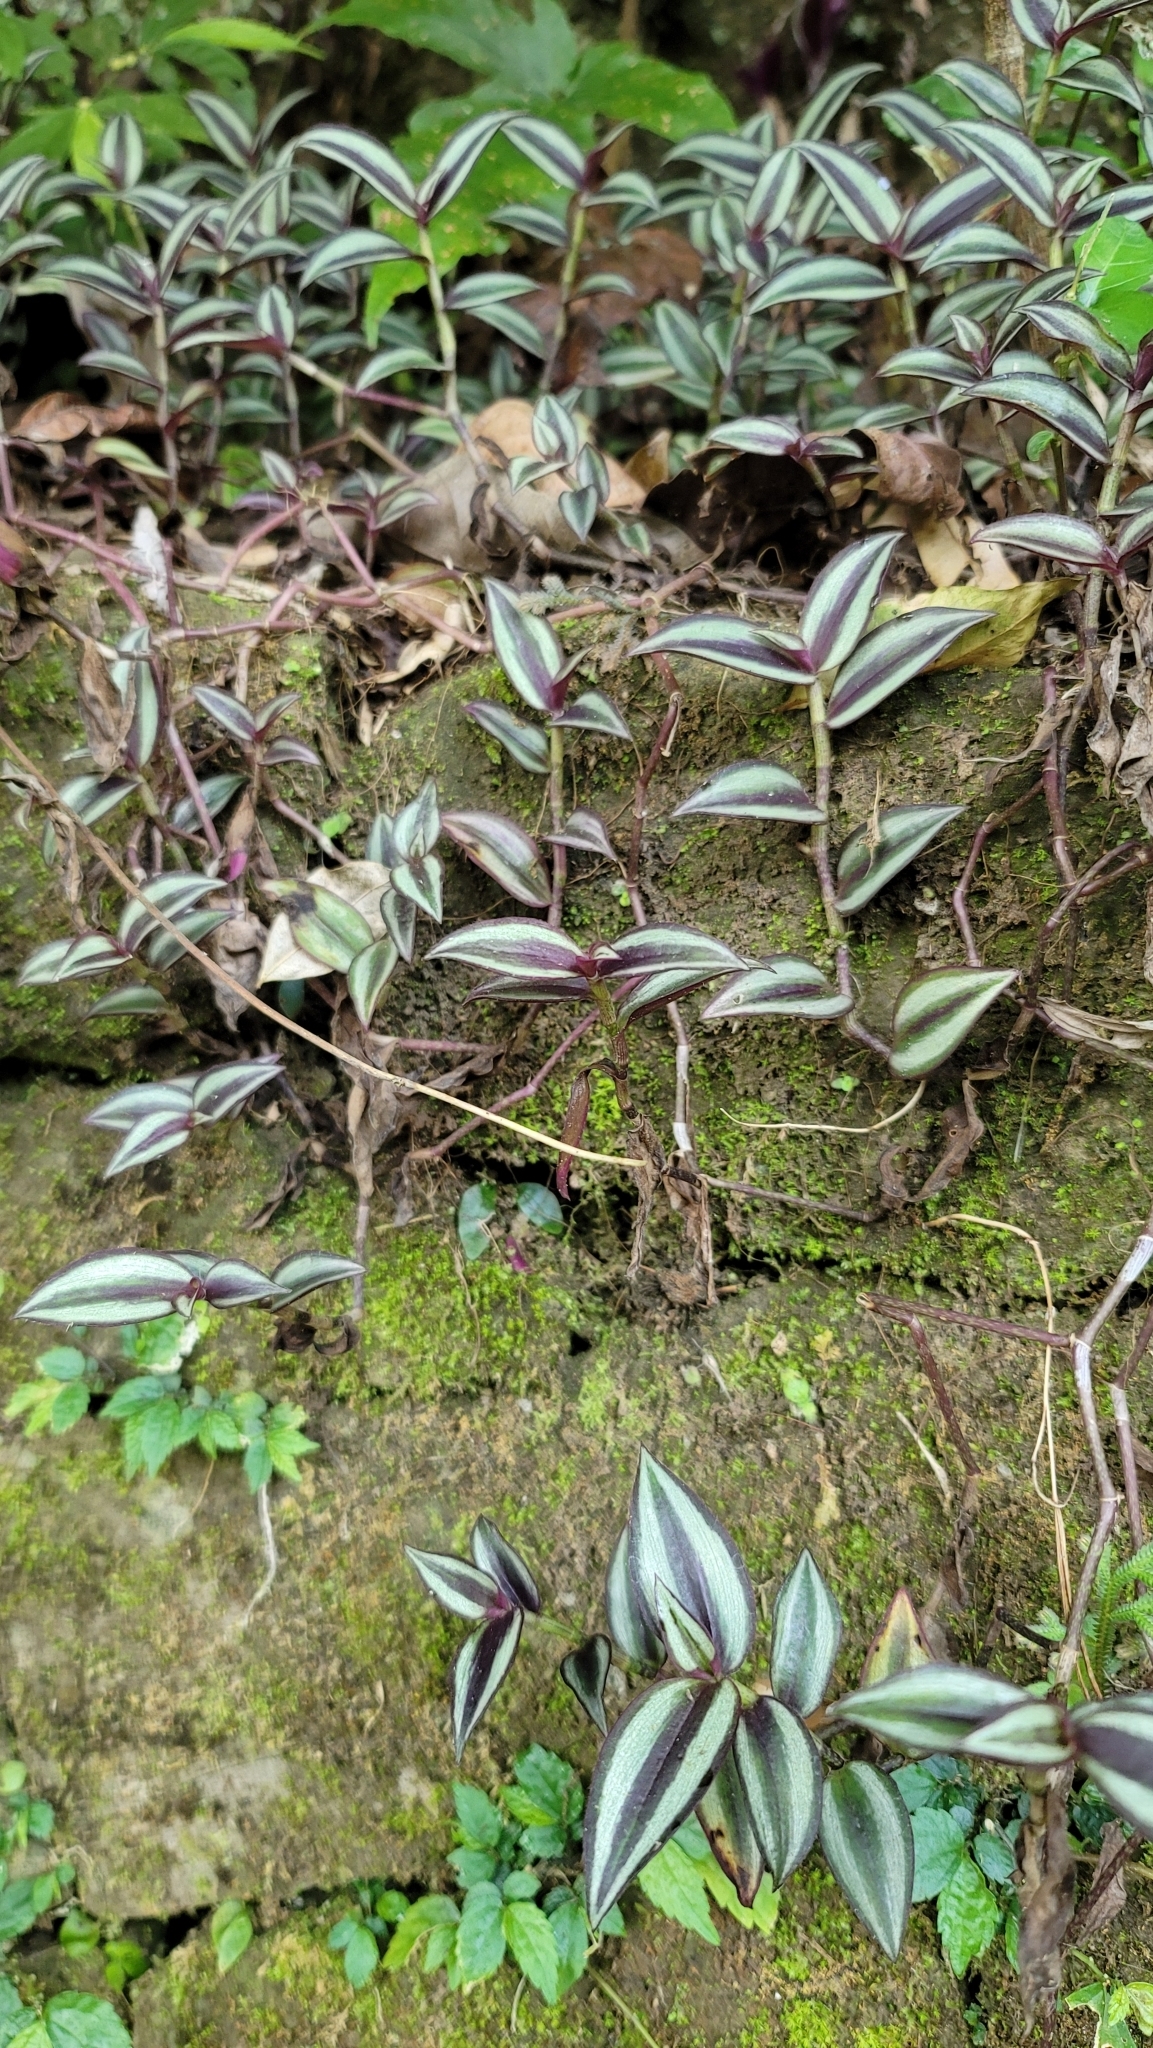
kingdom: Plantae
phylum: Tracheophyta
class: Liliopsida
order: Commelinales
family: Commelinaceae
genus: Tradescantia
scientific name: Tradescantia zebrina
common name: Inchplant
